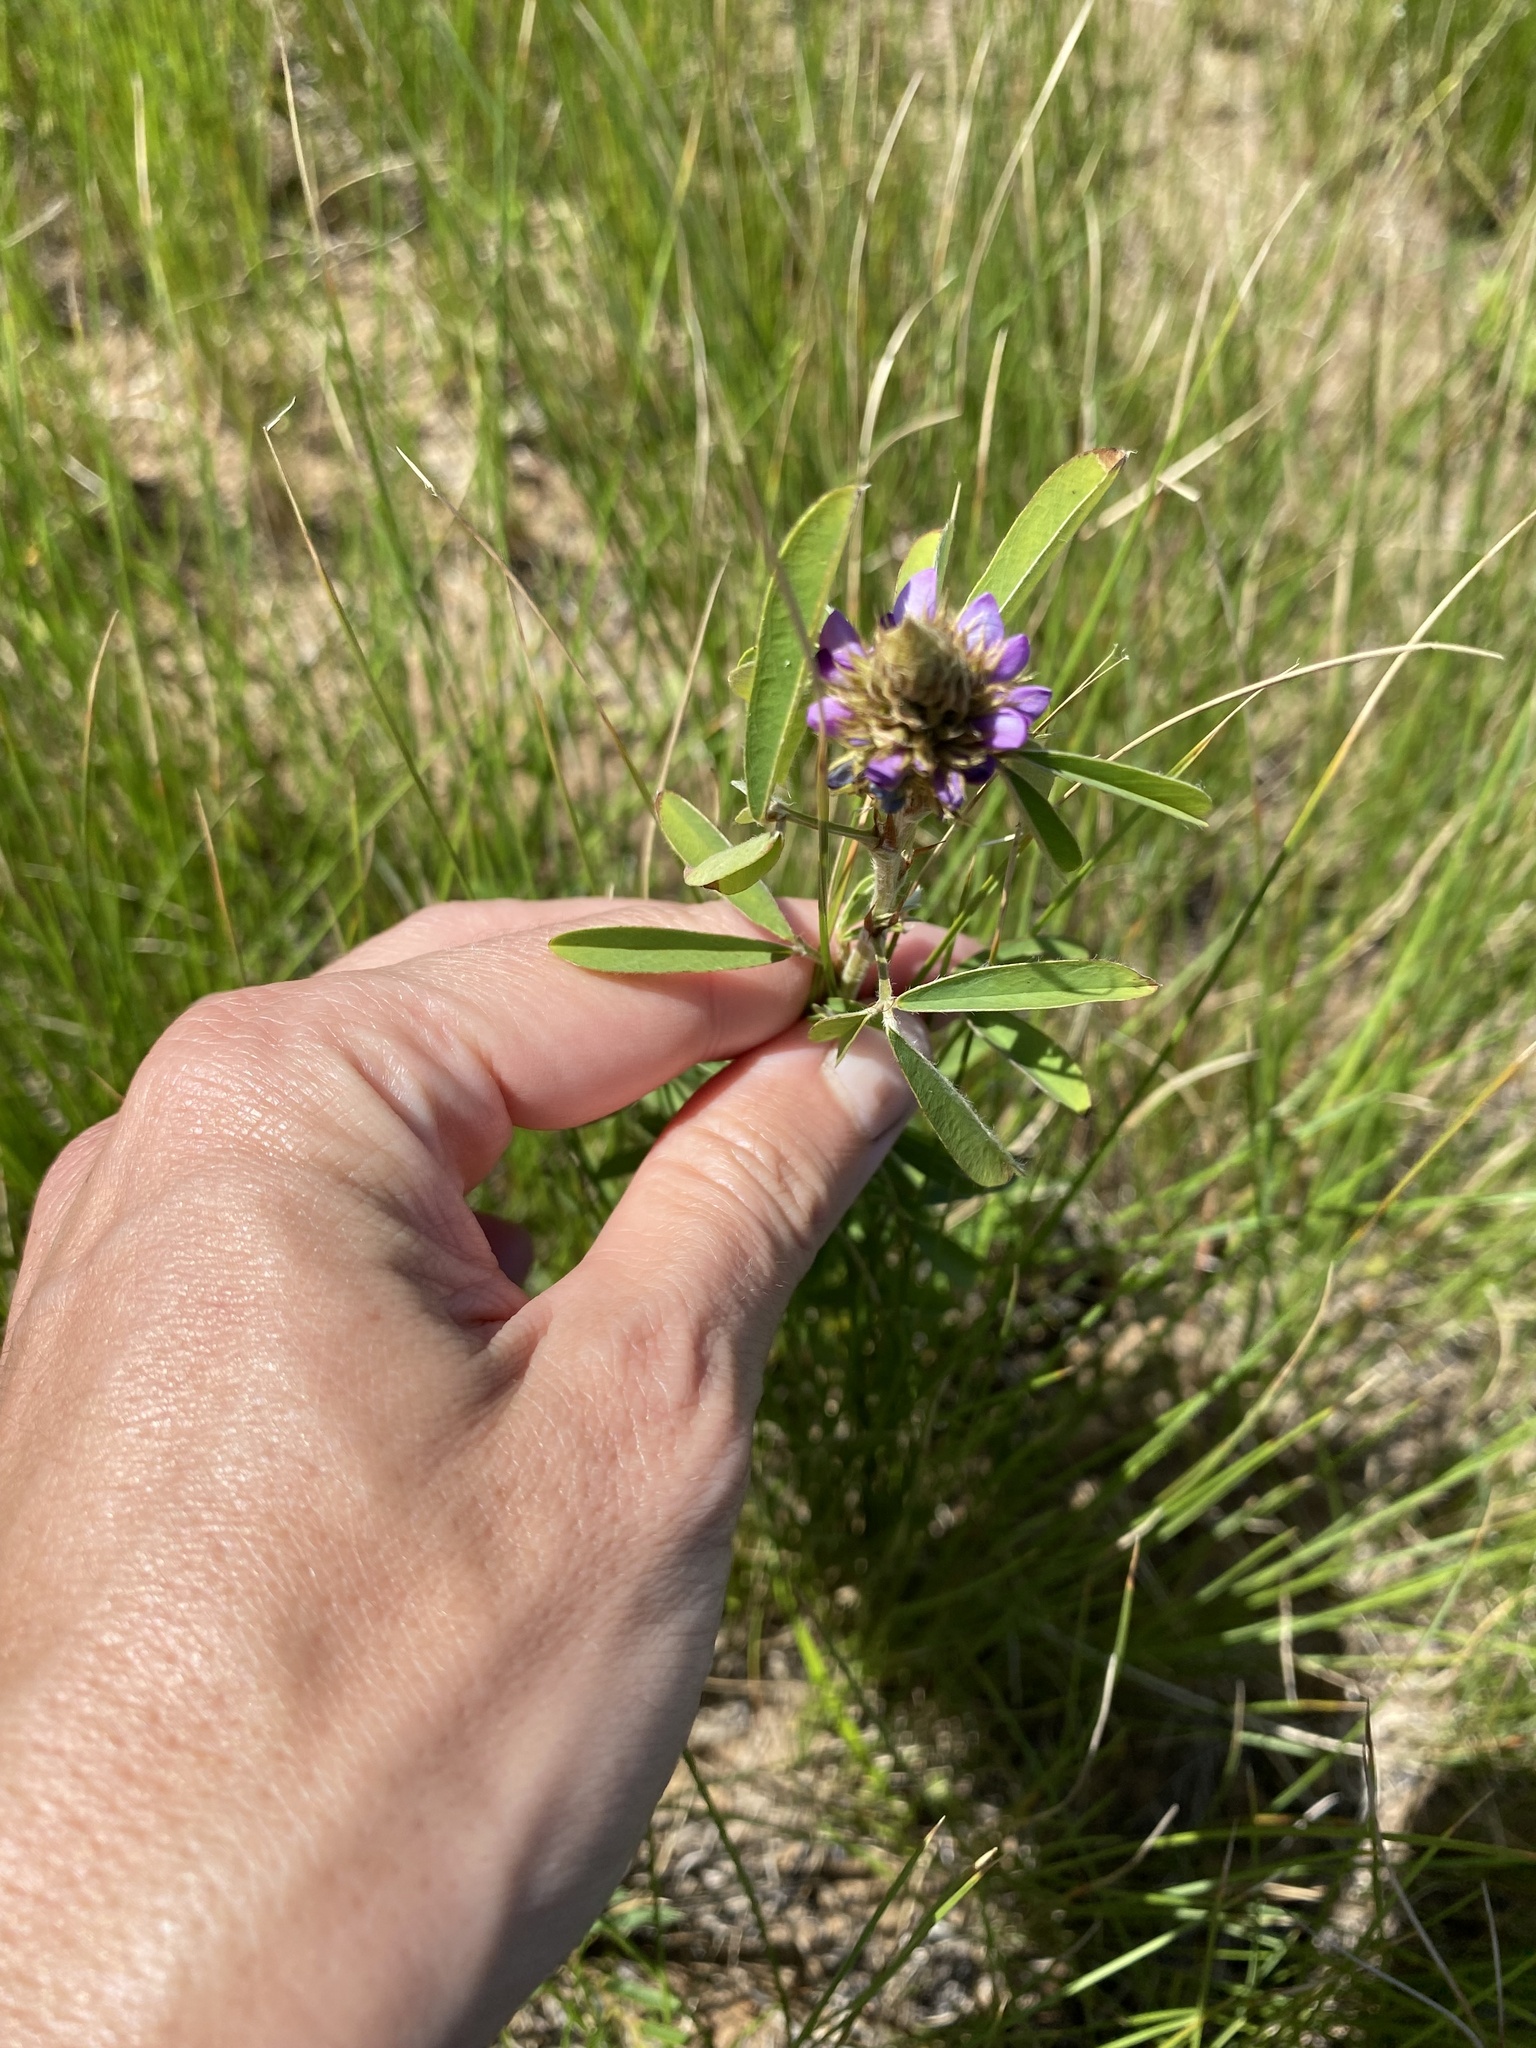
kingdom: Plantae
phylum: Tracheophyta
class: Magnoliopsida
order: Fabales
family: Fabaceae
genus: Grona
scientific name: Grona caffra
